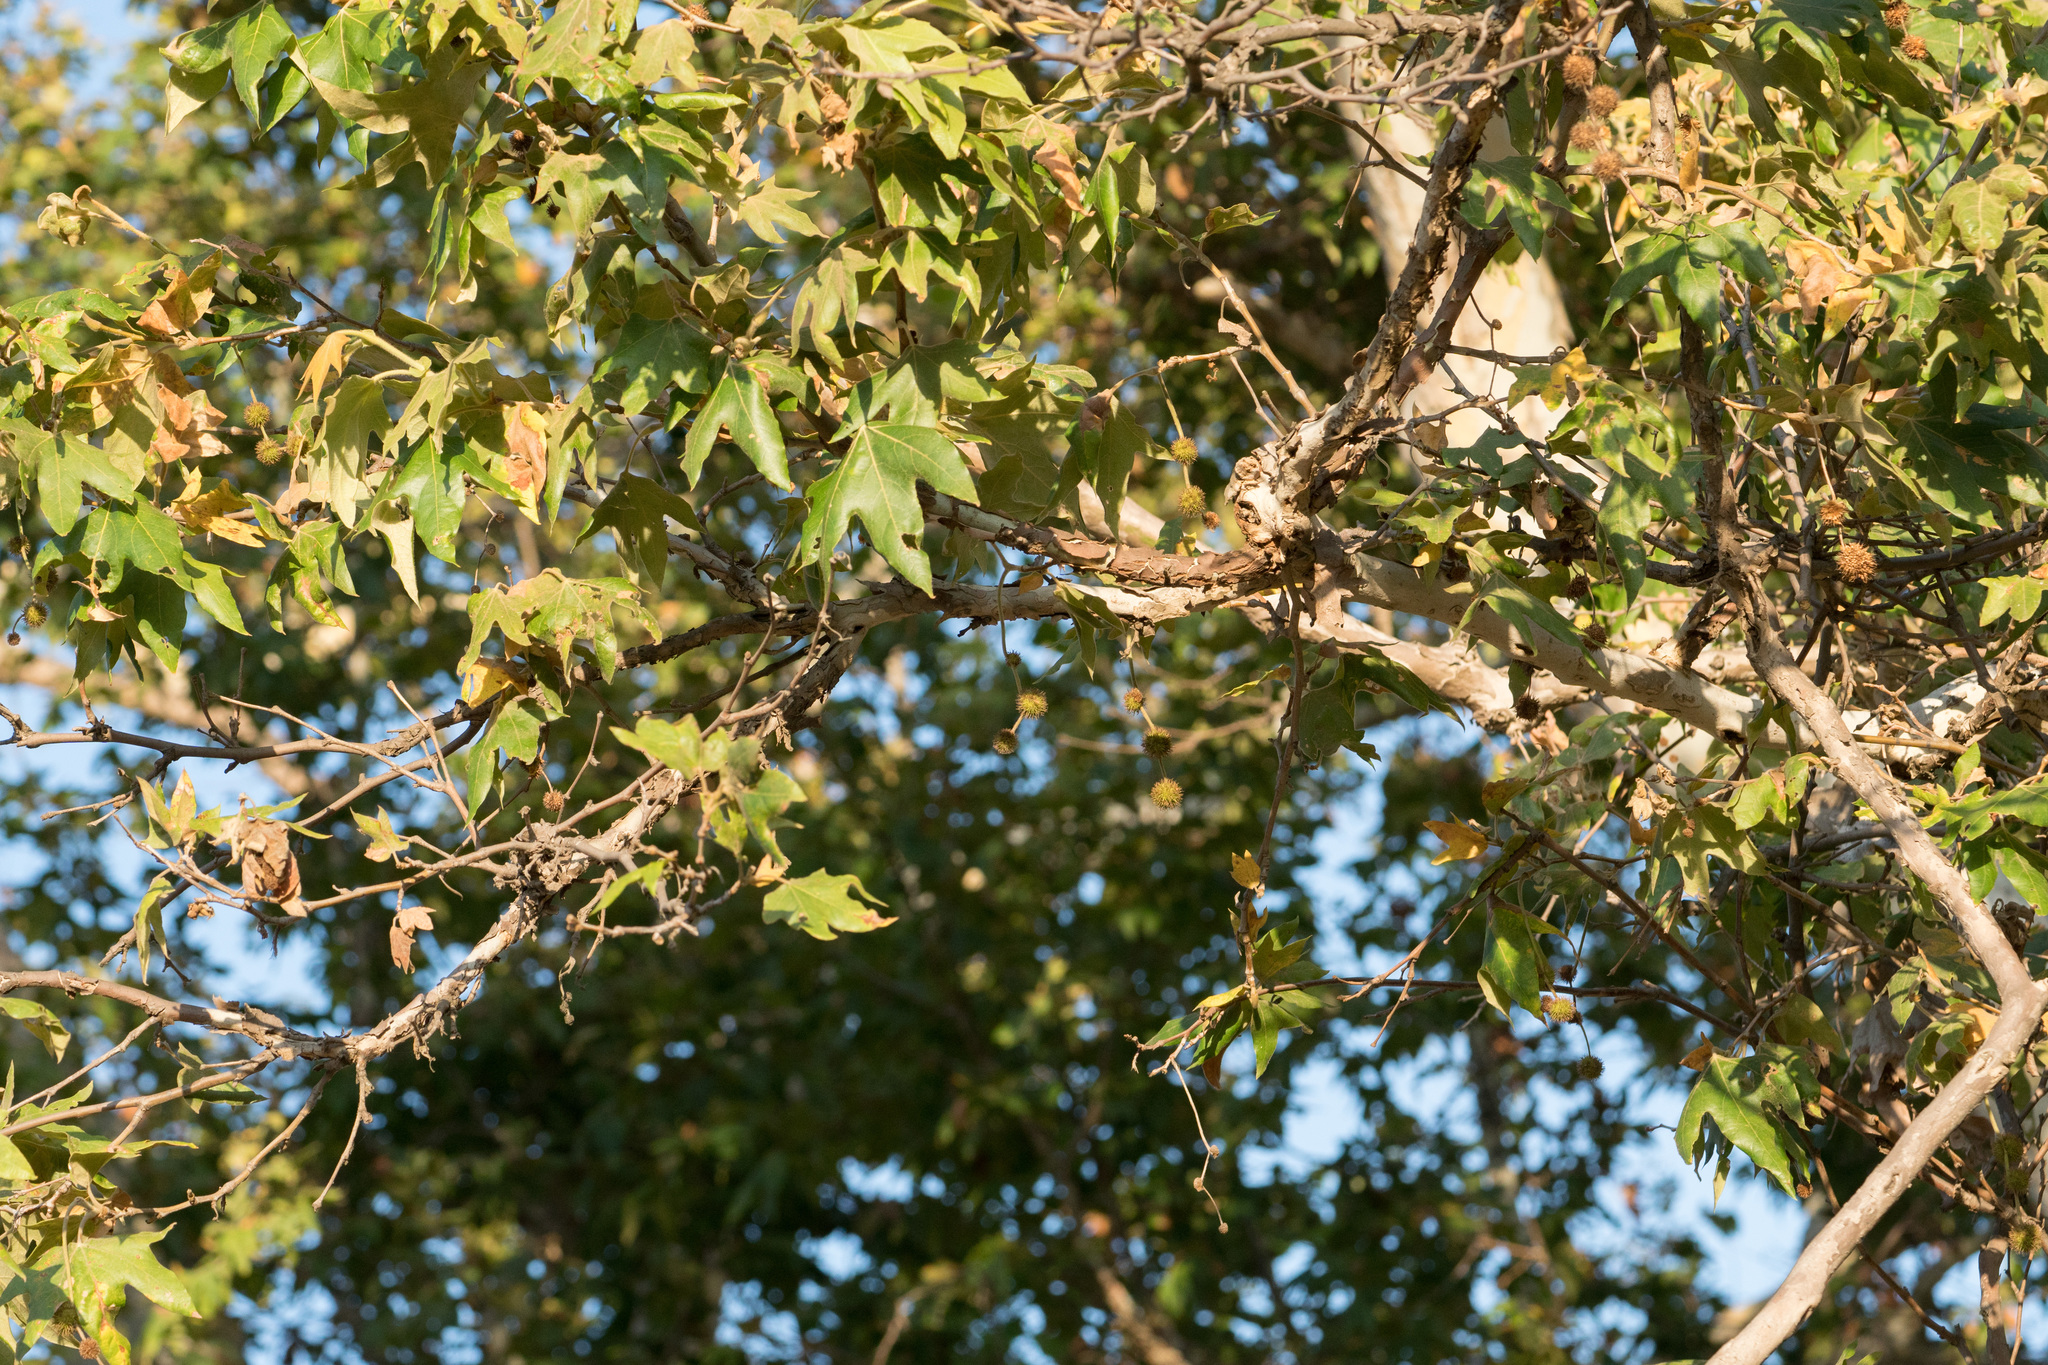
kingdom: Plantae
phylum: Tracheophyta
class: Magnoliopsida
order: Proteales
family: Platanaceae
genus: Platanus
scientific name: Platanus racemosa
